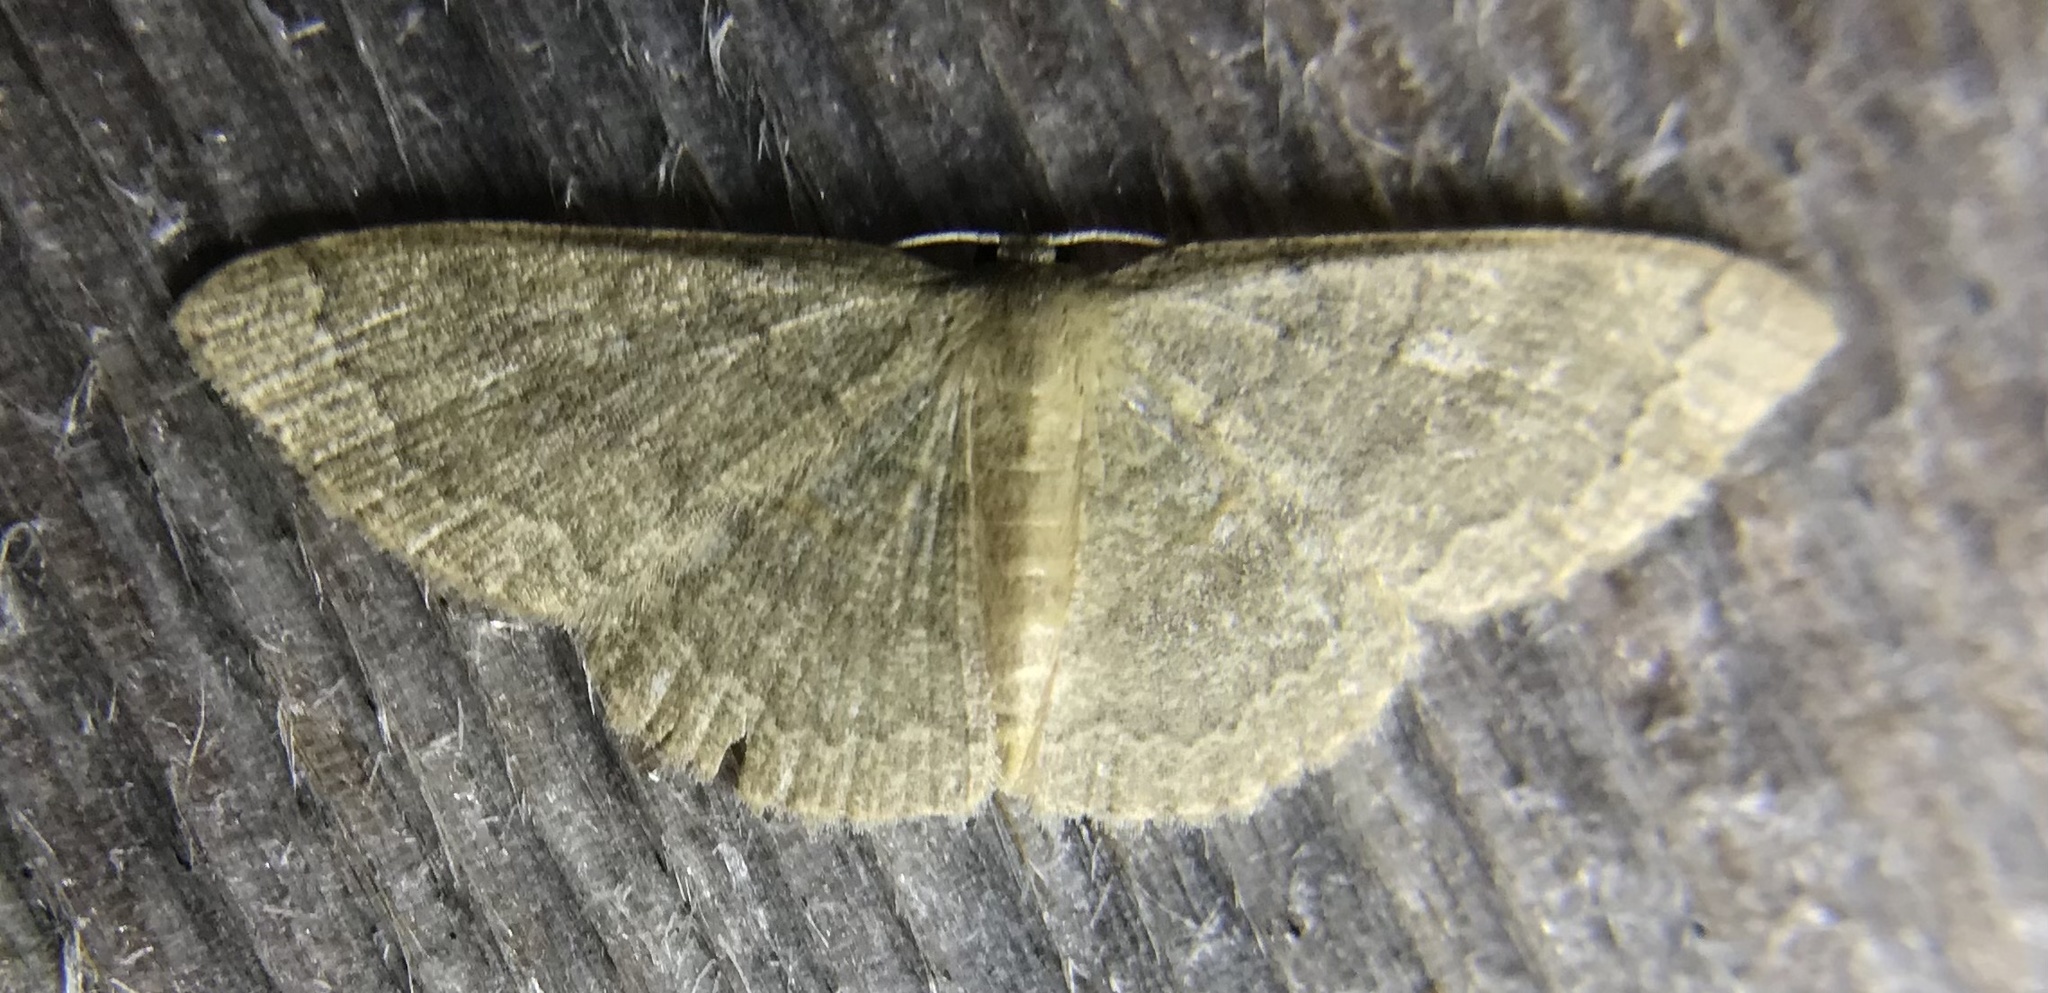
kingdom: Animalia
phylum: Arthropoda
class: Insecta
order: Lepidoptera
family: Geometridae
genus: Pleuroprucha
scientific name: Pleuroprucha insulsaria
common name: Common tan wave
